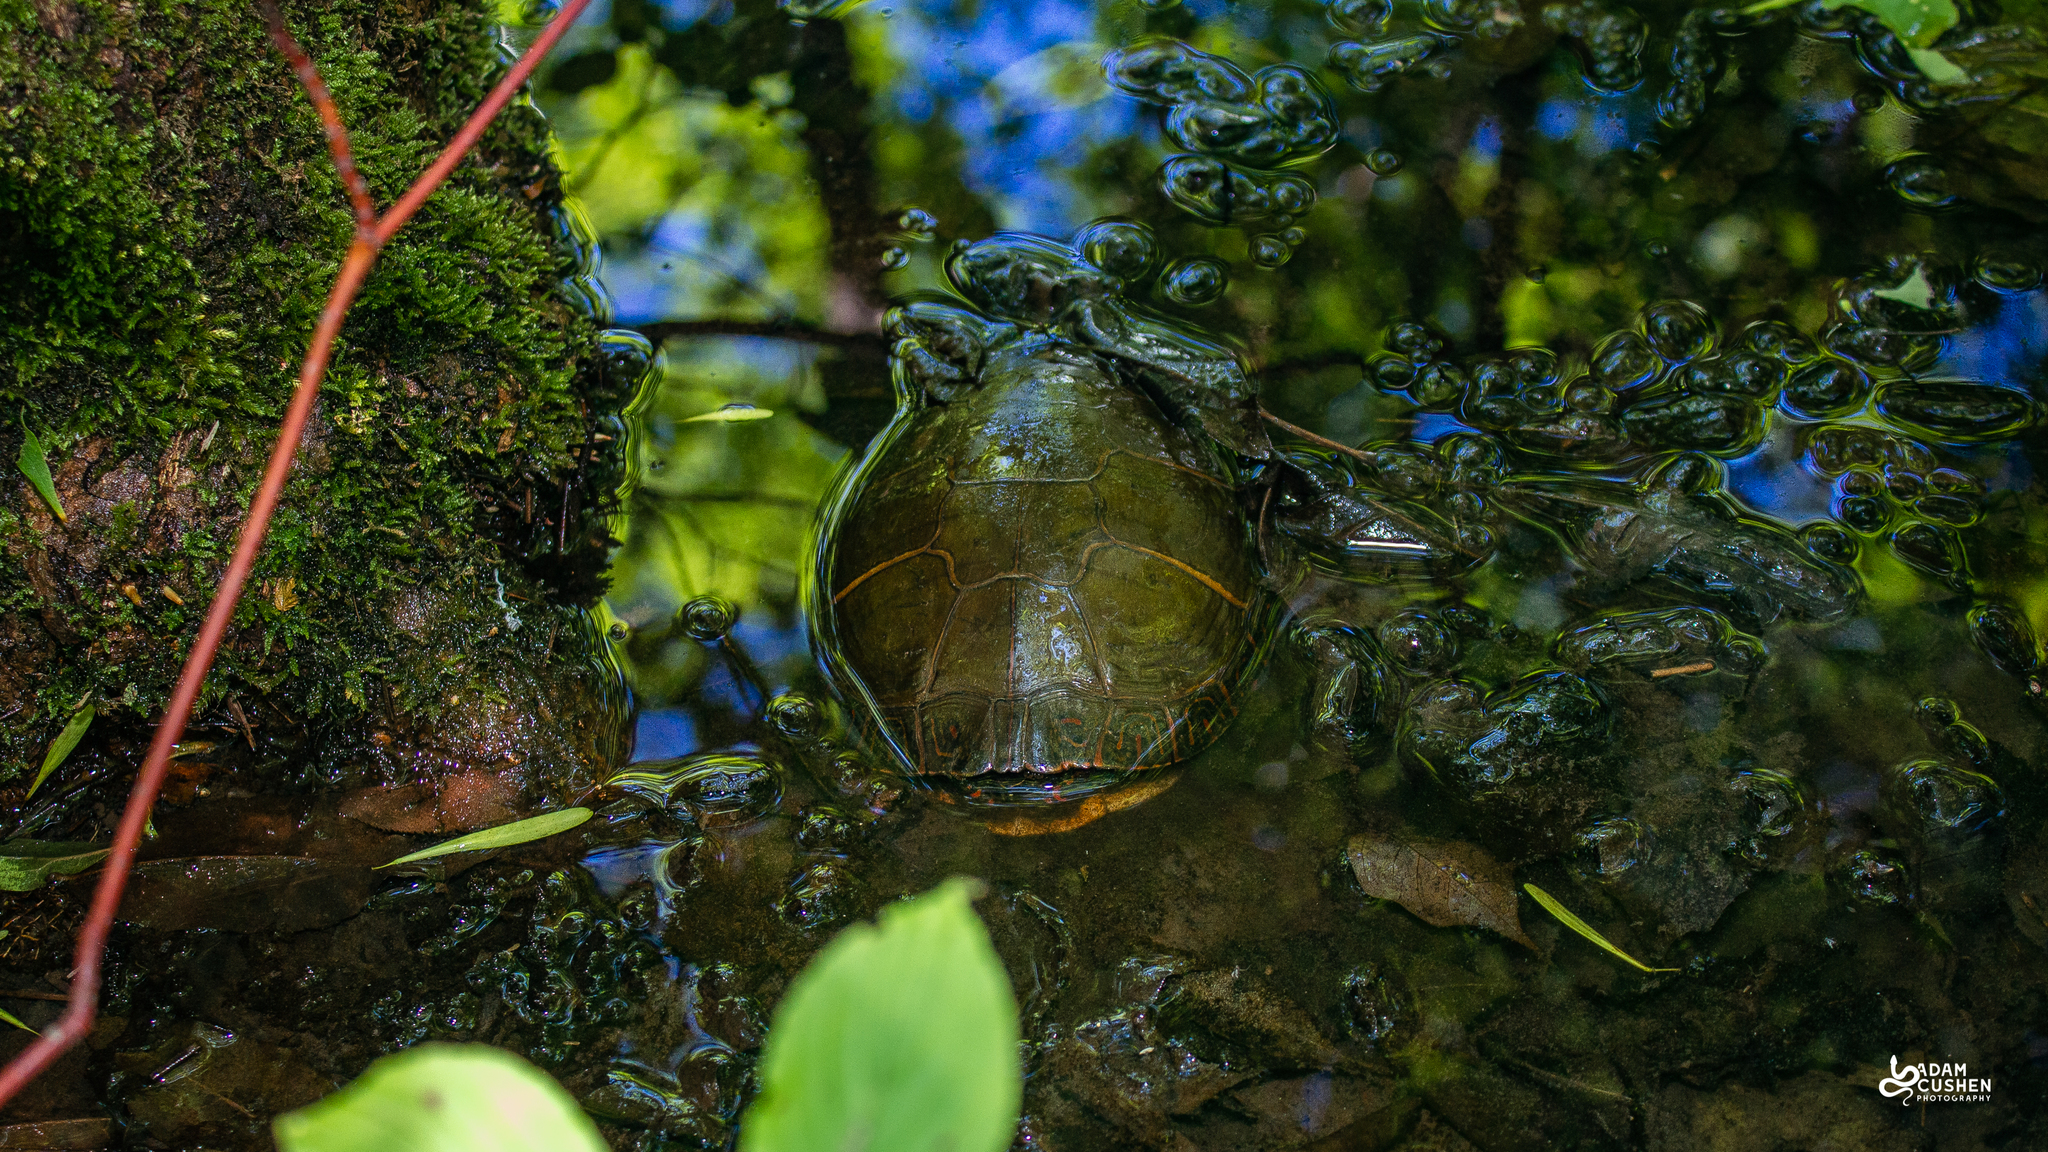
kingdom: Animalia
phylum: Chordata
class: Testudines
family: Emydidae
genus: Chrysemys
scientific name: Chrysemys picta
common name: Painted turtle
